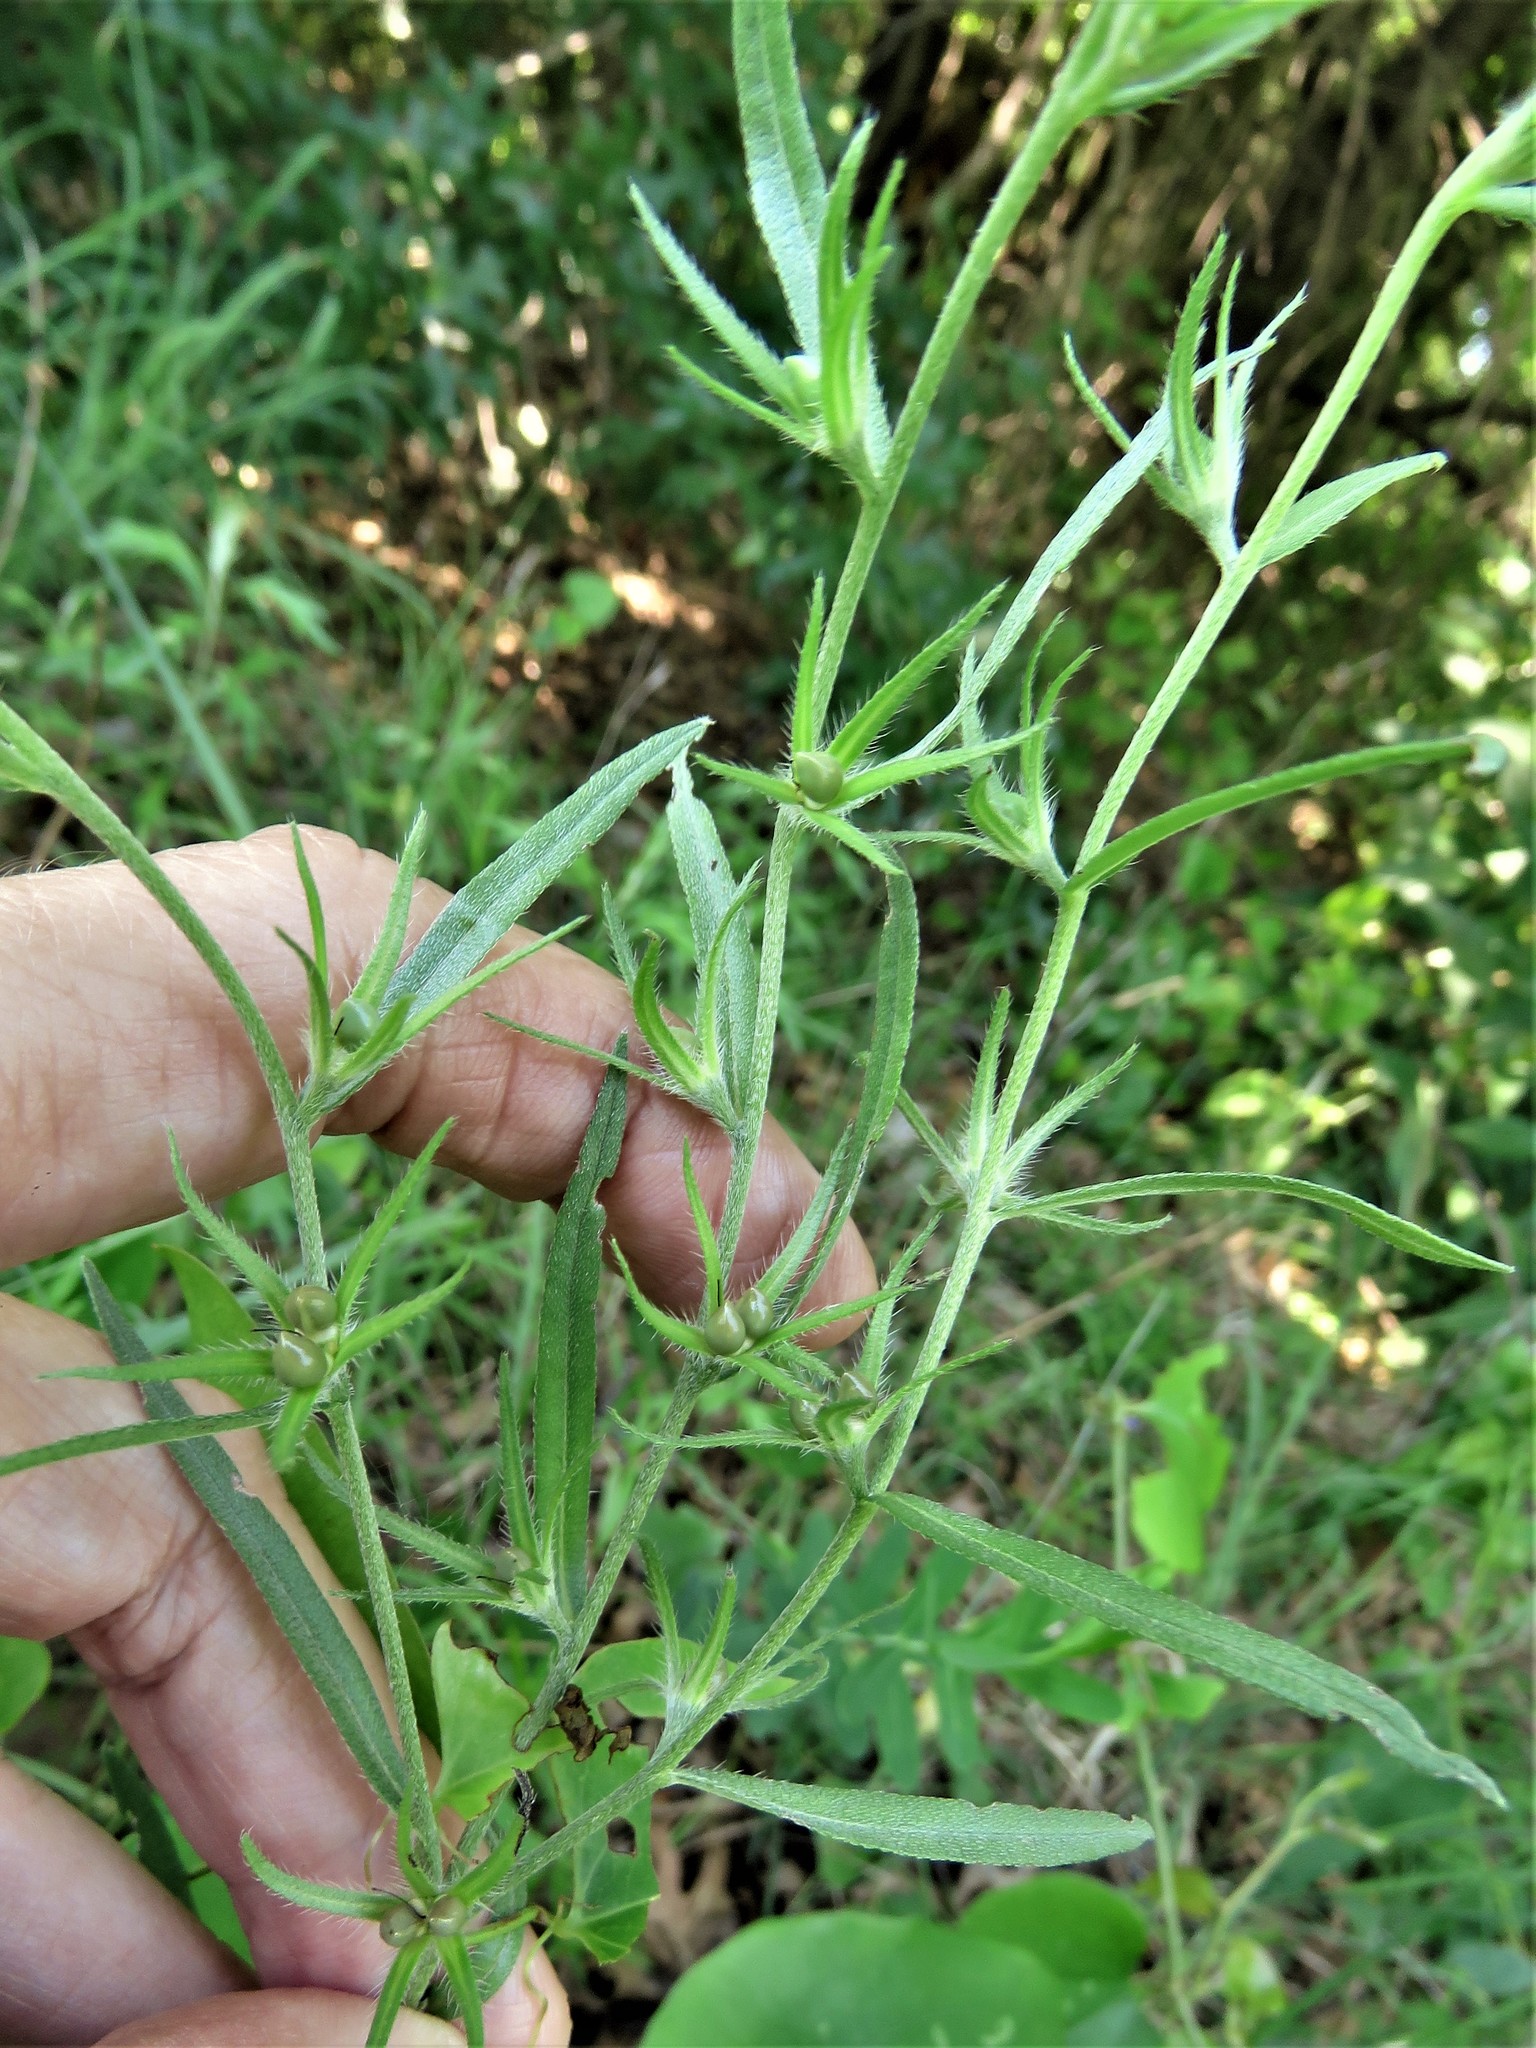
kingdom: Plantae
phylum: Tracheophyta
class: Magnoliopsida
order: Boraginales
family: Boraginaceae
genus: Buglossoides
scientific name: Buglossoides arvensis
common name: Corn gromwell
